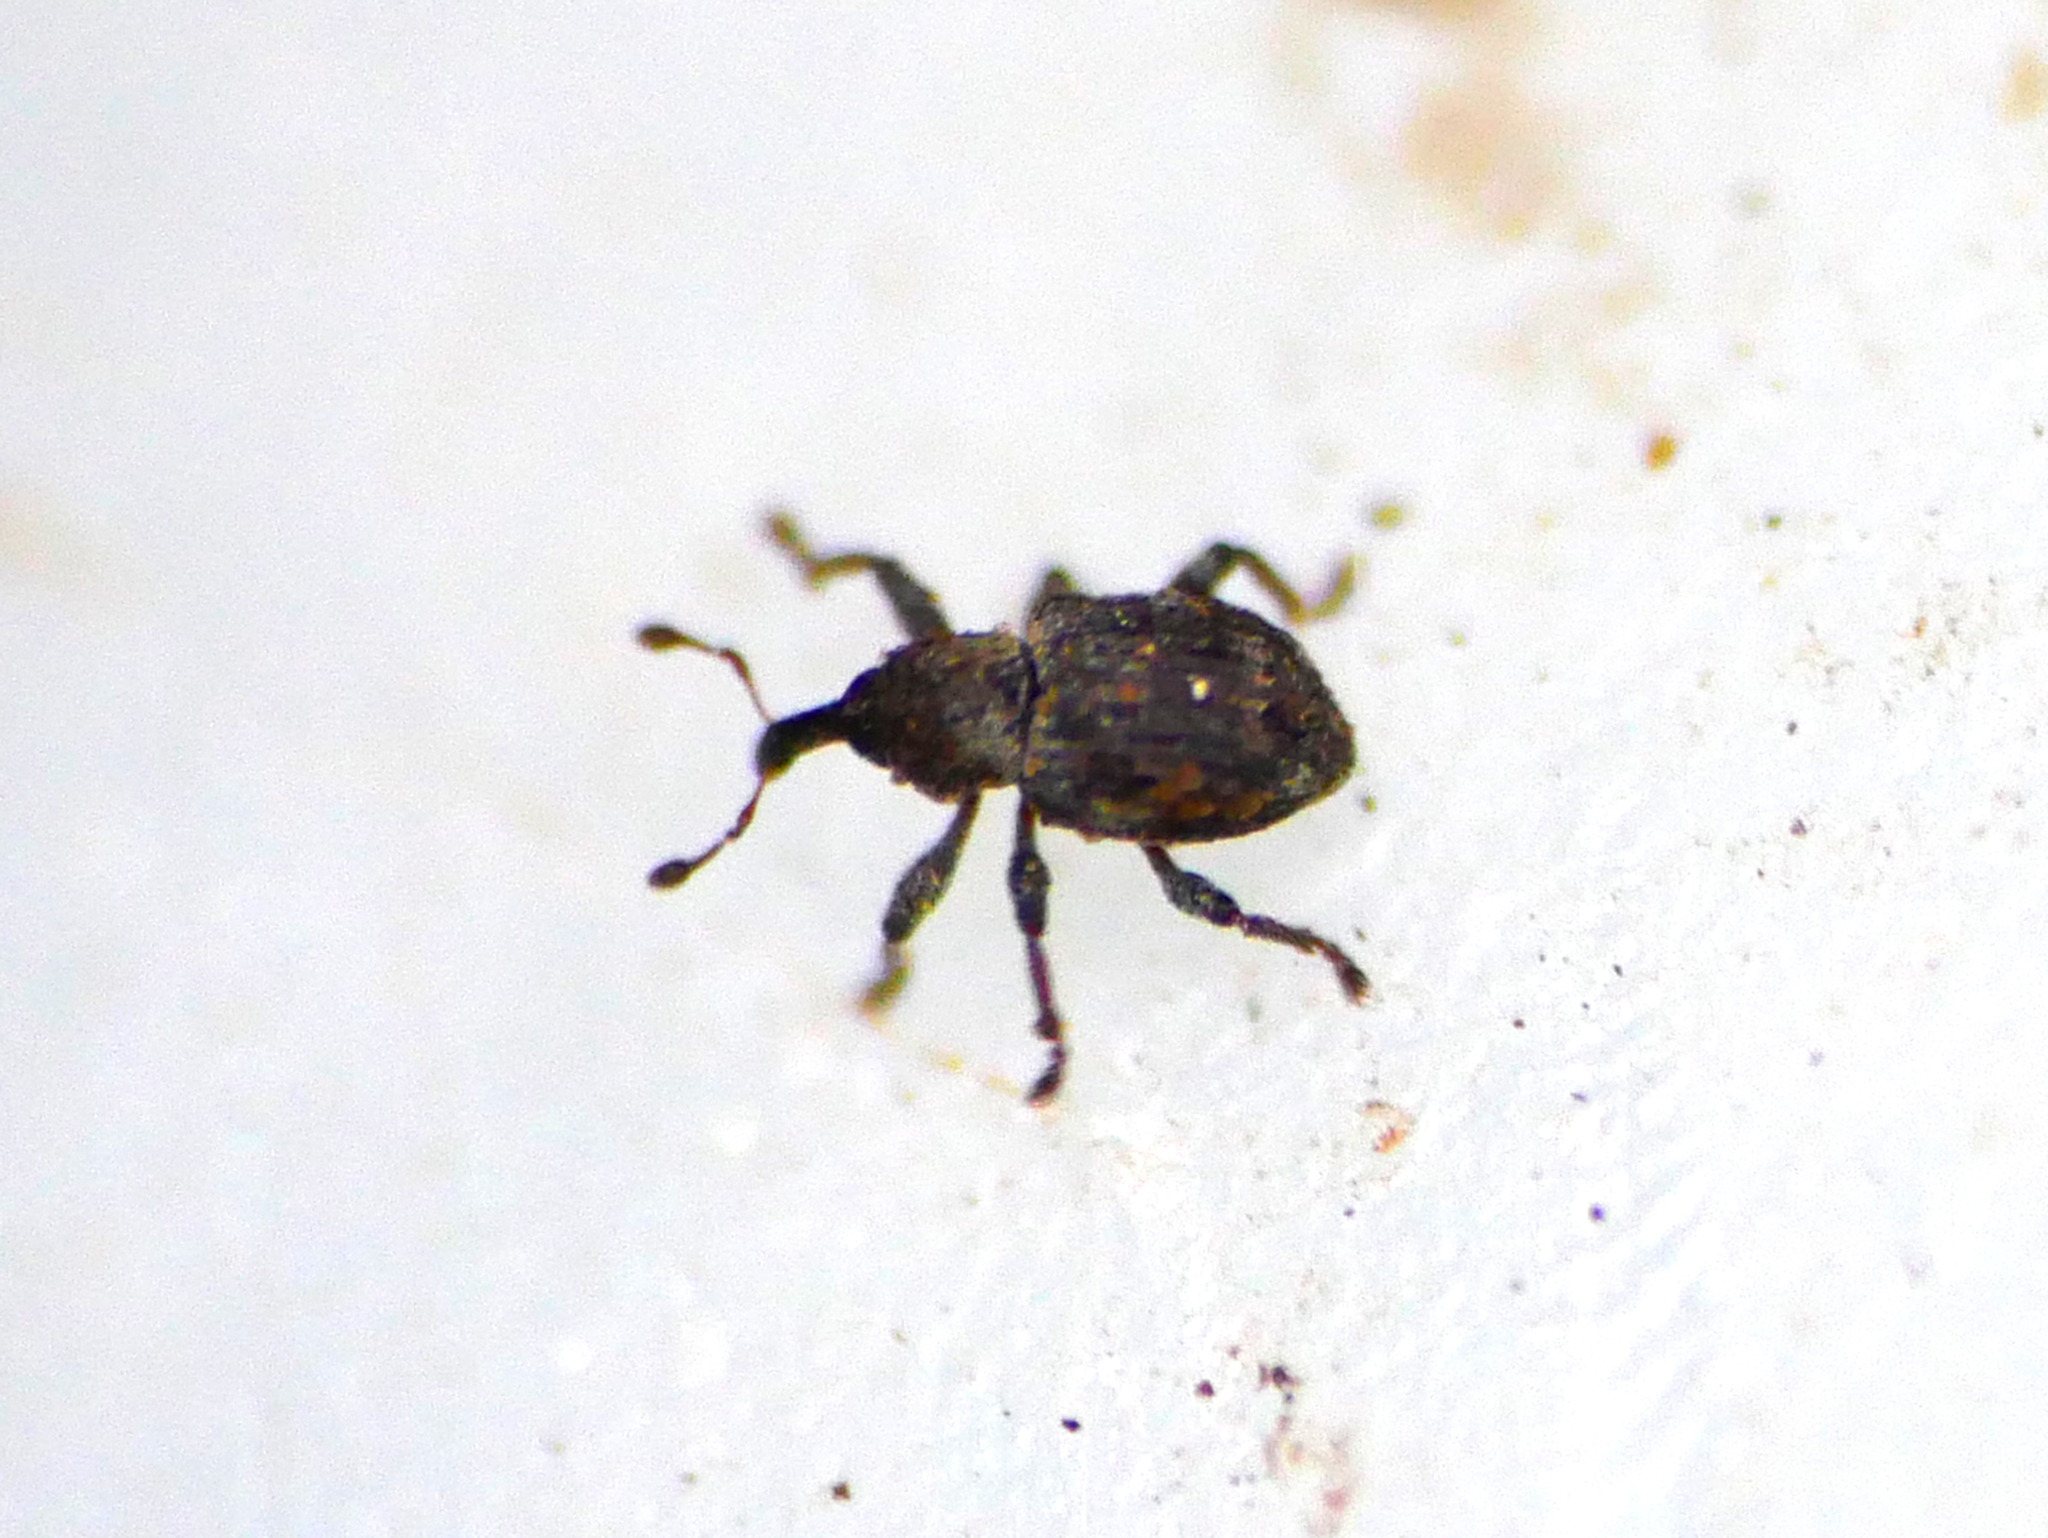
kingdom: Animalia
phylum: Arthropoda
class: Insecta
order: Coleoptera
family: Brachyceridae
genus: Tanysphyrus
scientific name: Tanysphyrus lemnae
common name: Duckweed weevil
